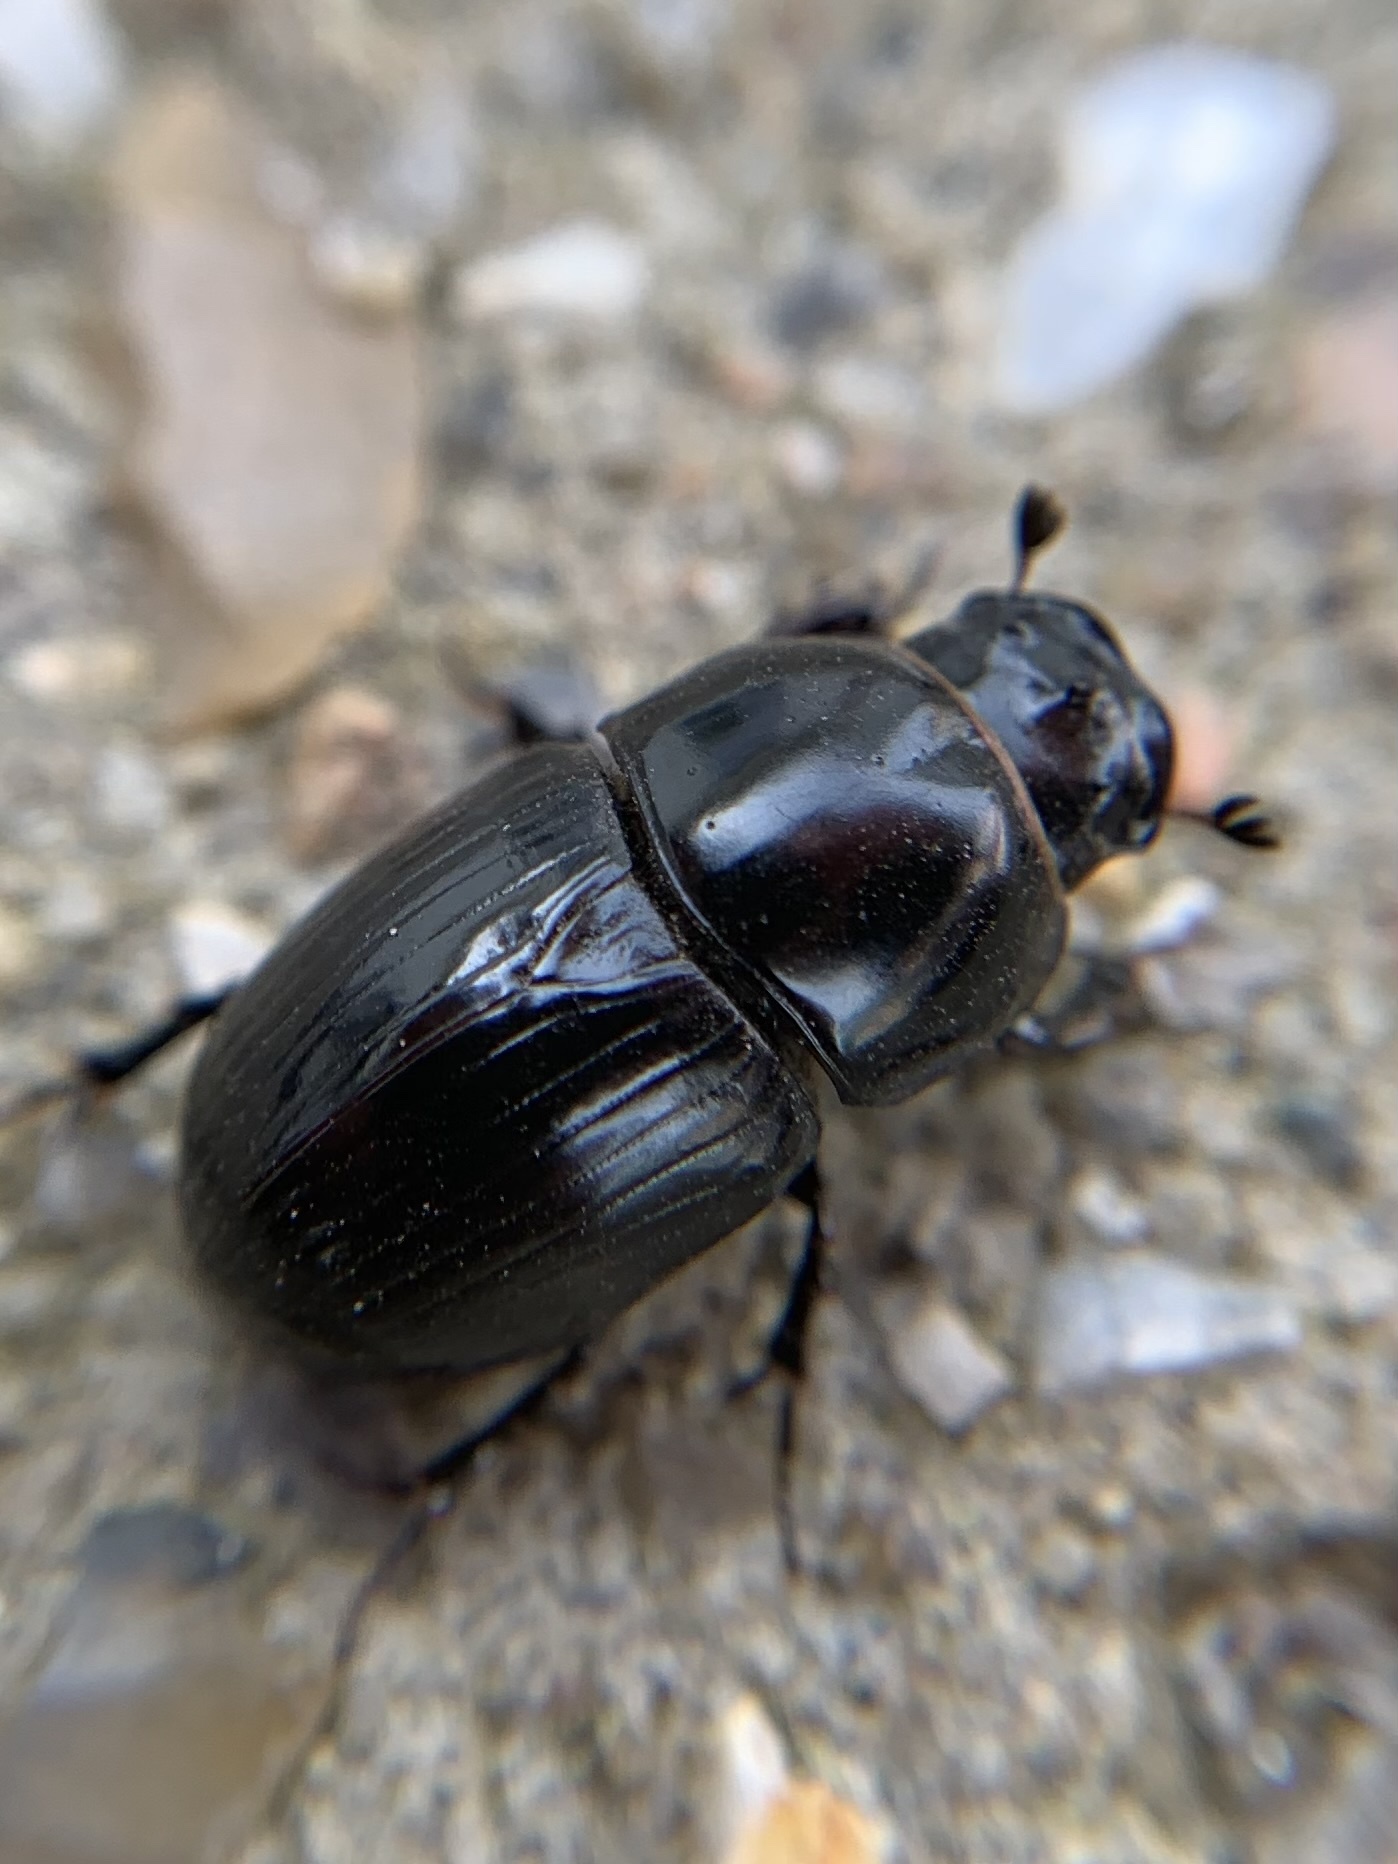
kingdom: Animalia
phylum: Arthropoda
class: Insecta
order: Coleoptera
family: Scarabaeidae
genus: Teuchestes
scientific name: Teuchestes fossor
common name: Digger small dung beetle
